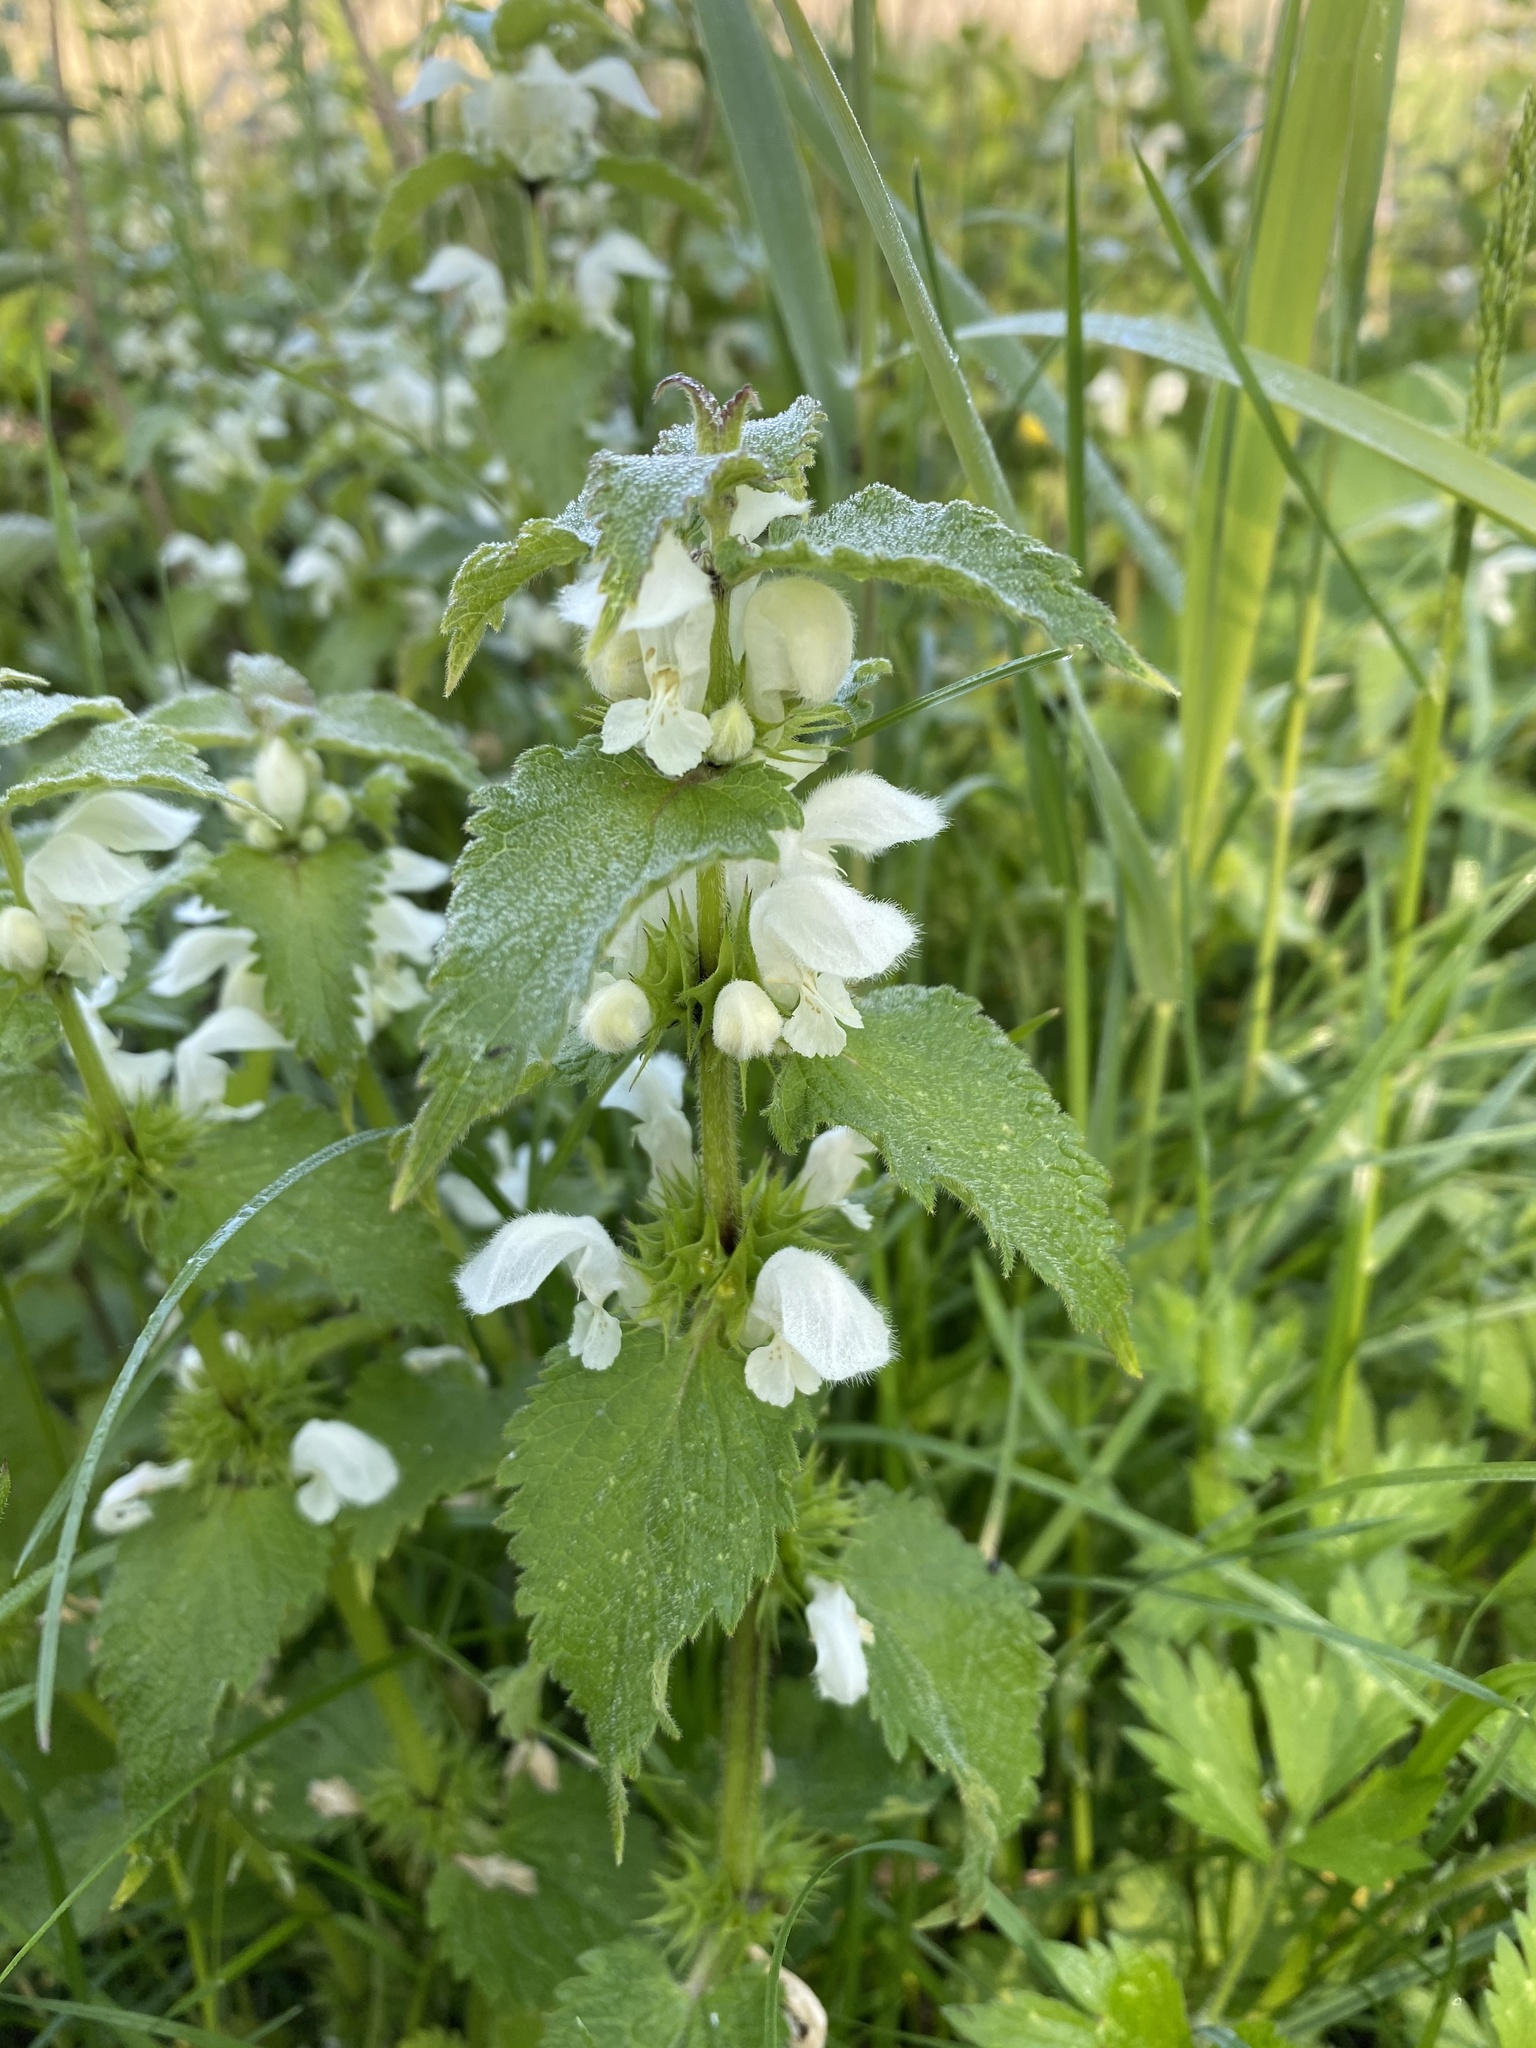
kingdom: Plantae
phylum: Tracheophyta
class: Magnoliopsida
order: Lamiales
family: Lamiaceae
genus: Lamium
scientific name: Lamium album
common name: White dead-nettle
